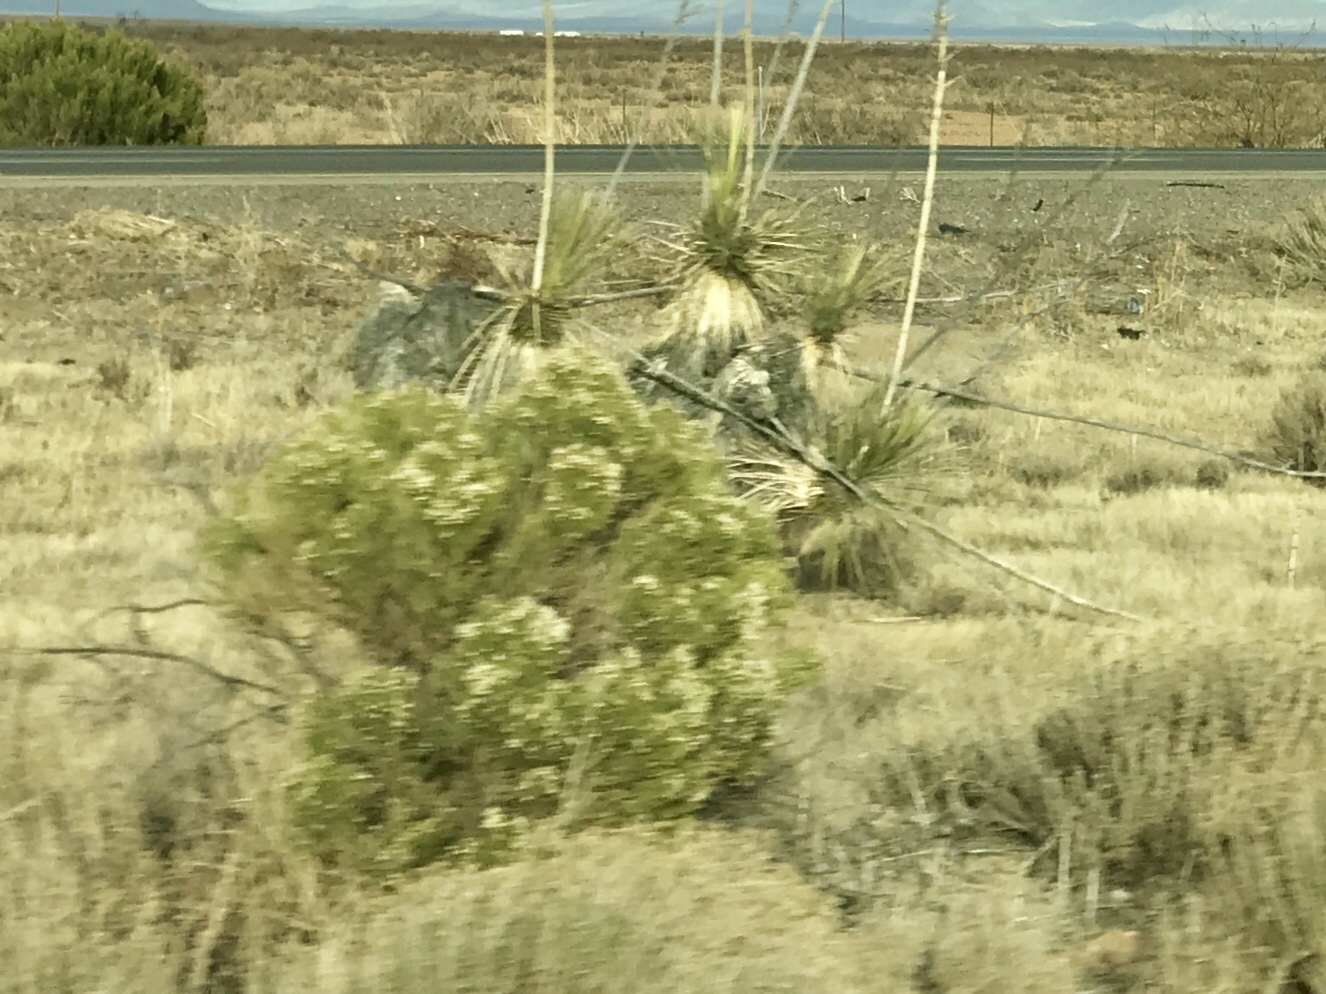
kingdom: Plantae
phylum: Tracheophyta
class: Magnoliopsida
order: Asterales
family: Asteraceae
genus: Baccharis
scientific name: Baccharis sarothroides
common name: Desert-broom
